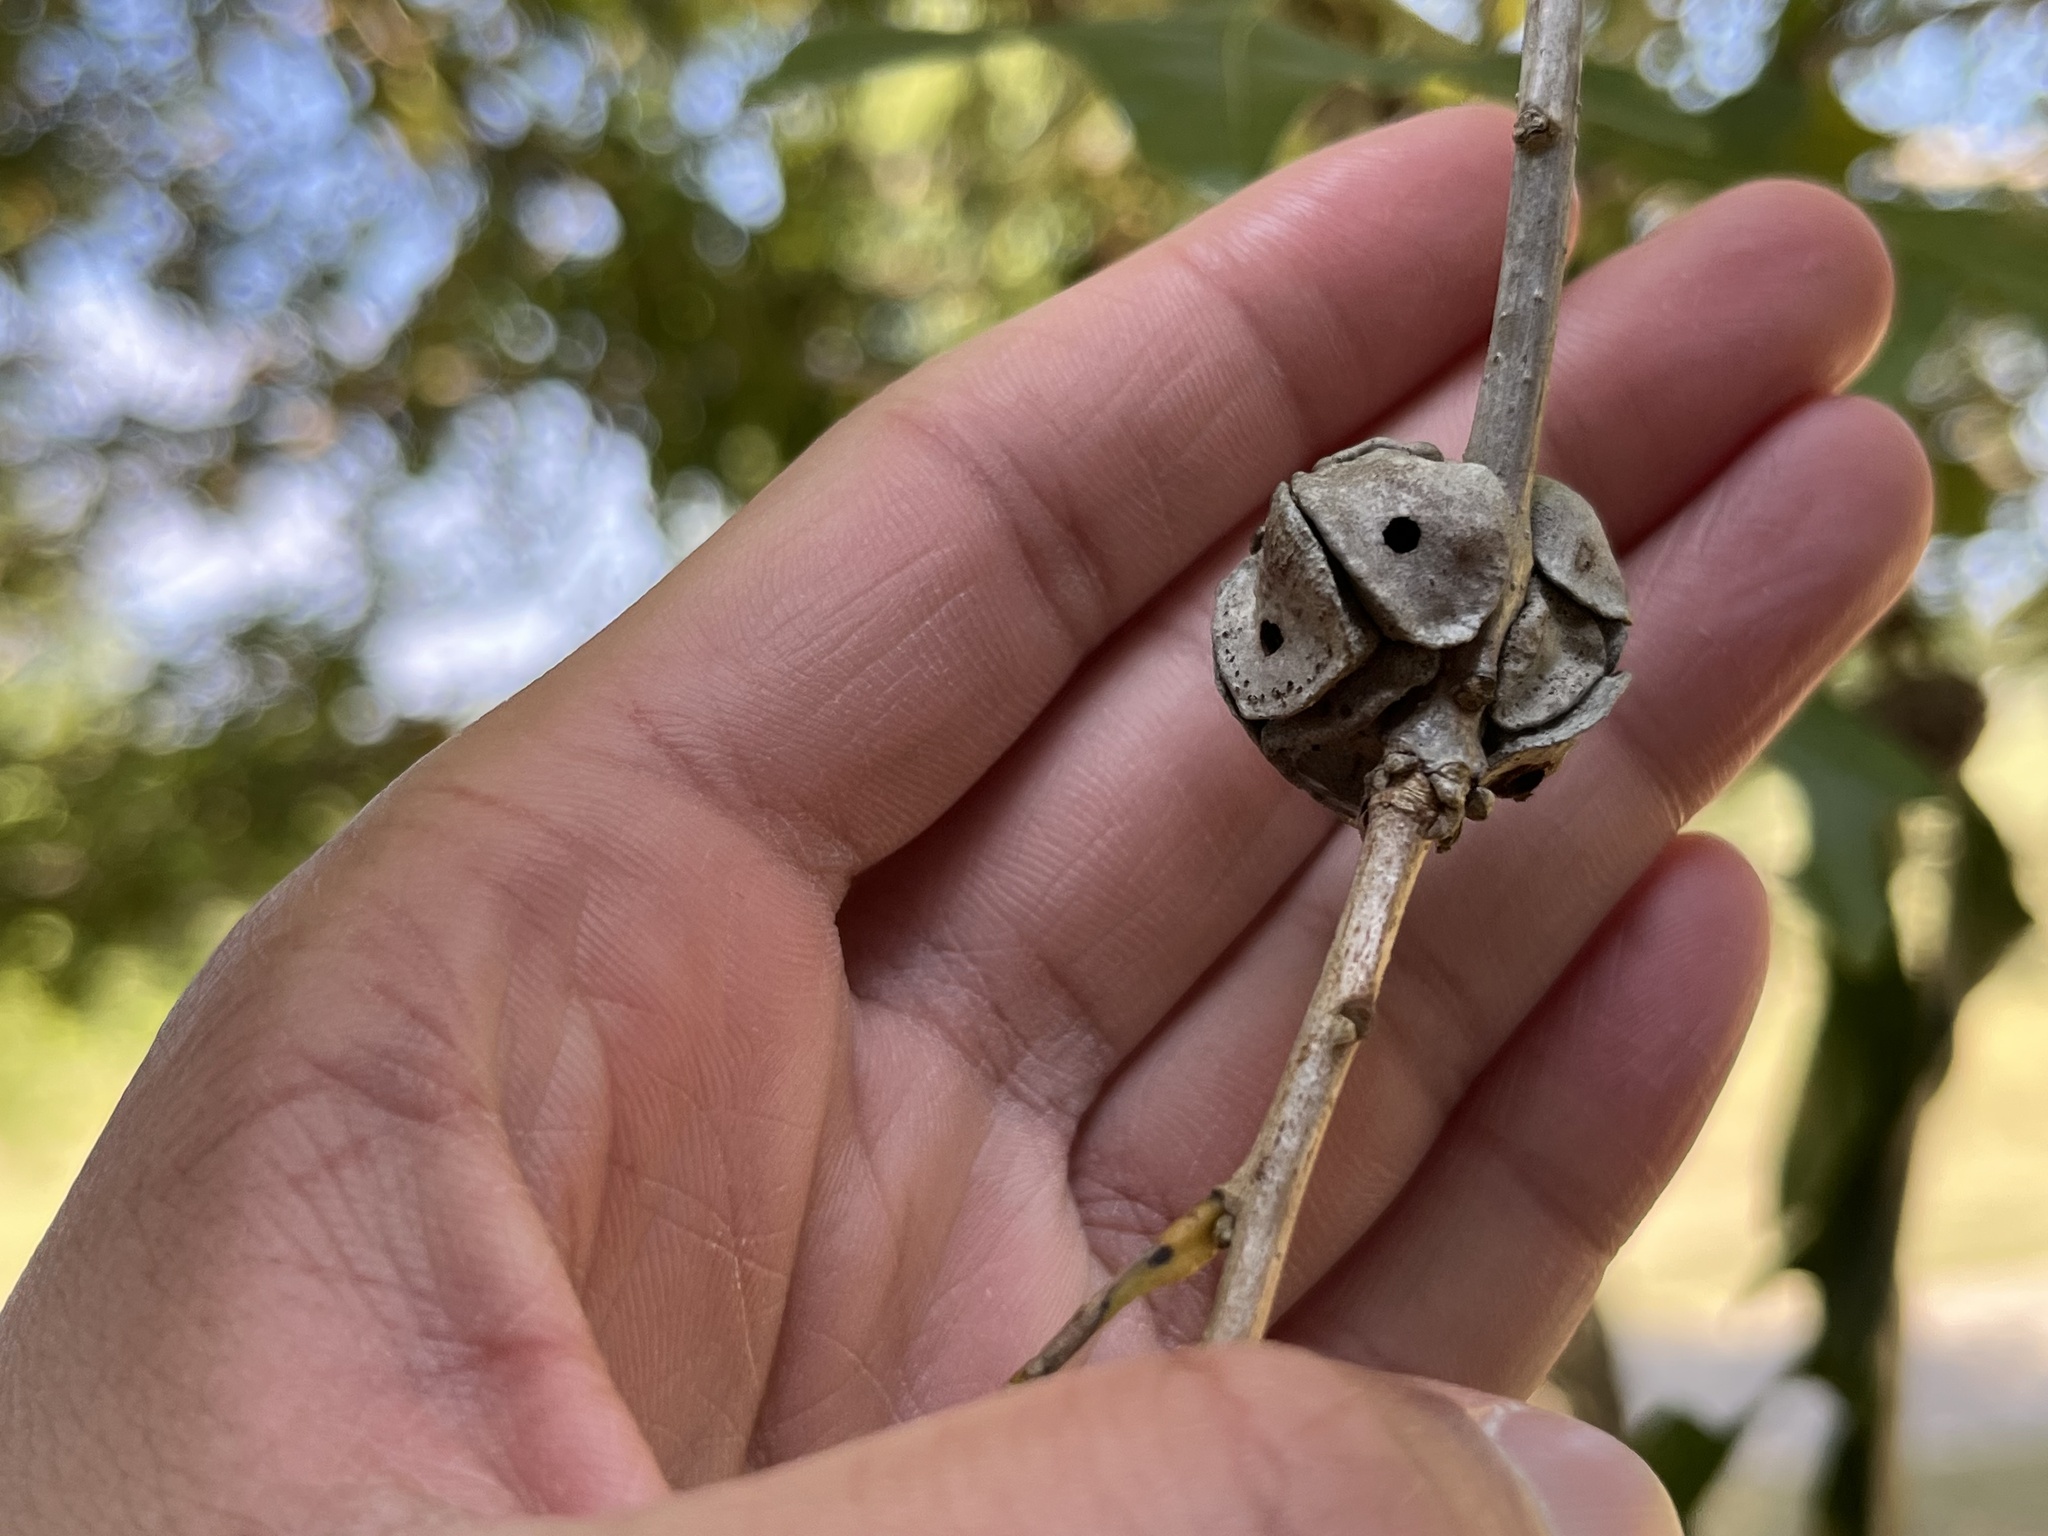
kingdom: Animalia
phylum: Arthropoda
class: Insecta
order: Hymenoptera
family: Cynipidae
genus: Andricus
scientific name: Andricus
